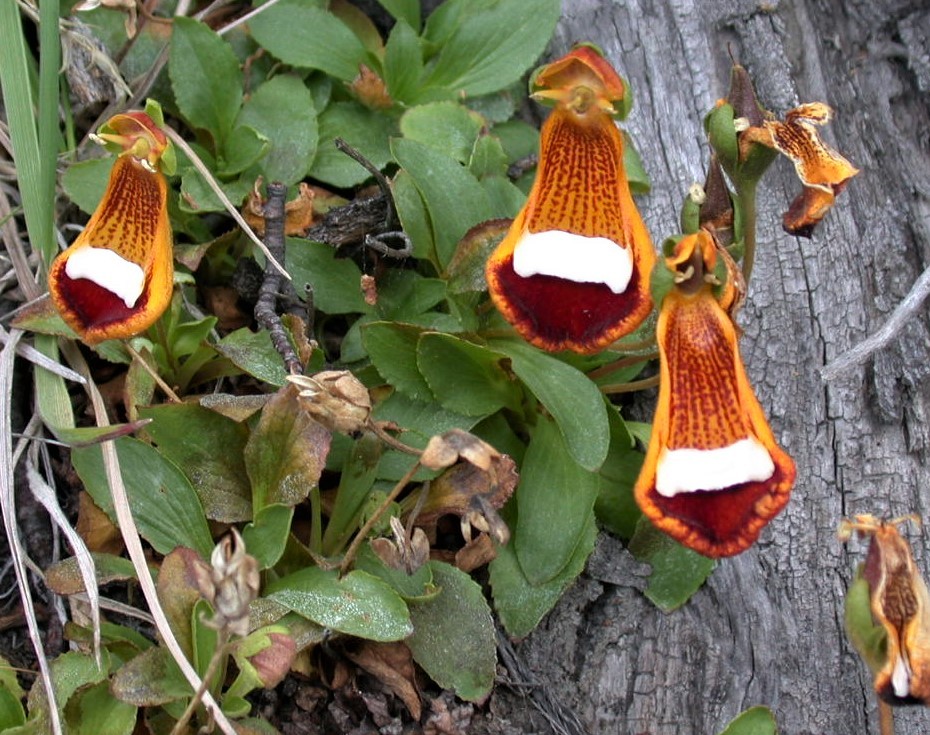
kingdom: Plantae
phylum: Tracheophyta
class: Magnoliopsida
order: Lamiales
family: Calceolariaceae
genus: Calceolaria
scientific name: Calceolaria uniflora
